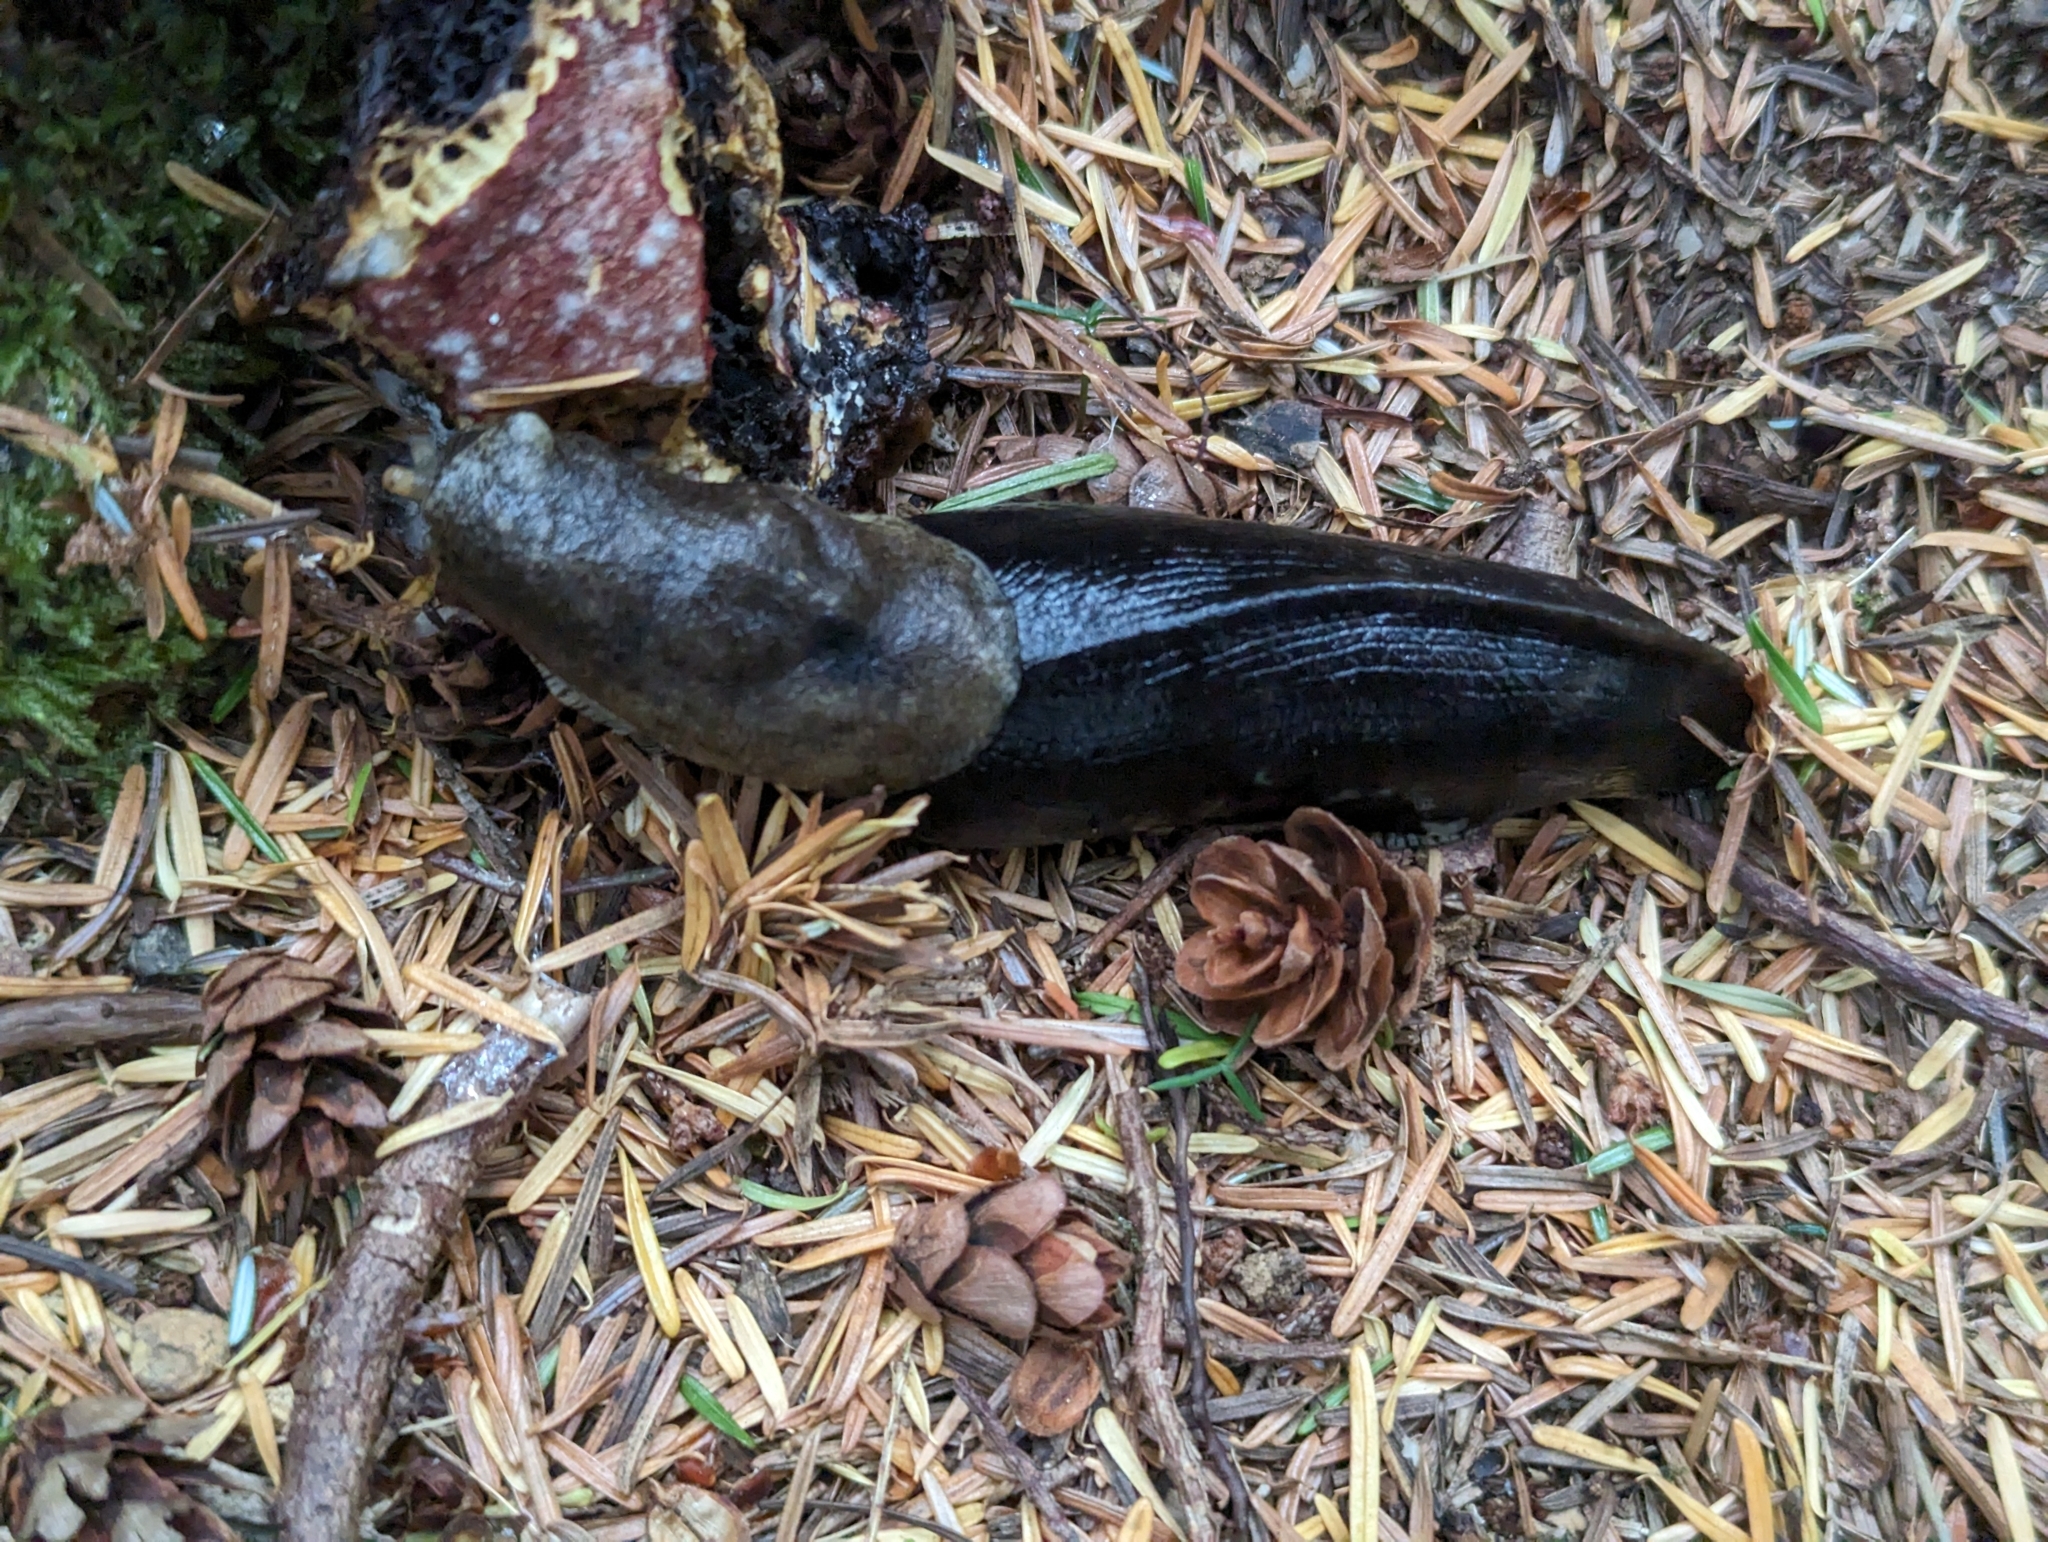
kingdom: Animalia
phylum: Mollusca
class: Gastropoda
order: Stylommatophora
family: Ariolimacidae
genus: Ariolimax
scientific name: Ariolimax columbianus
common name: Pacific banana slug
